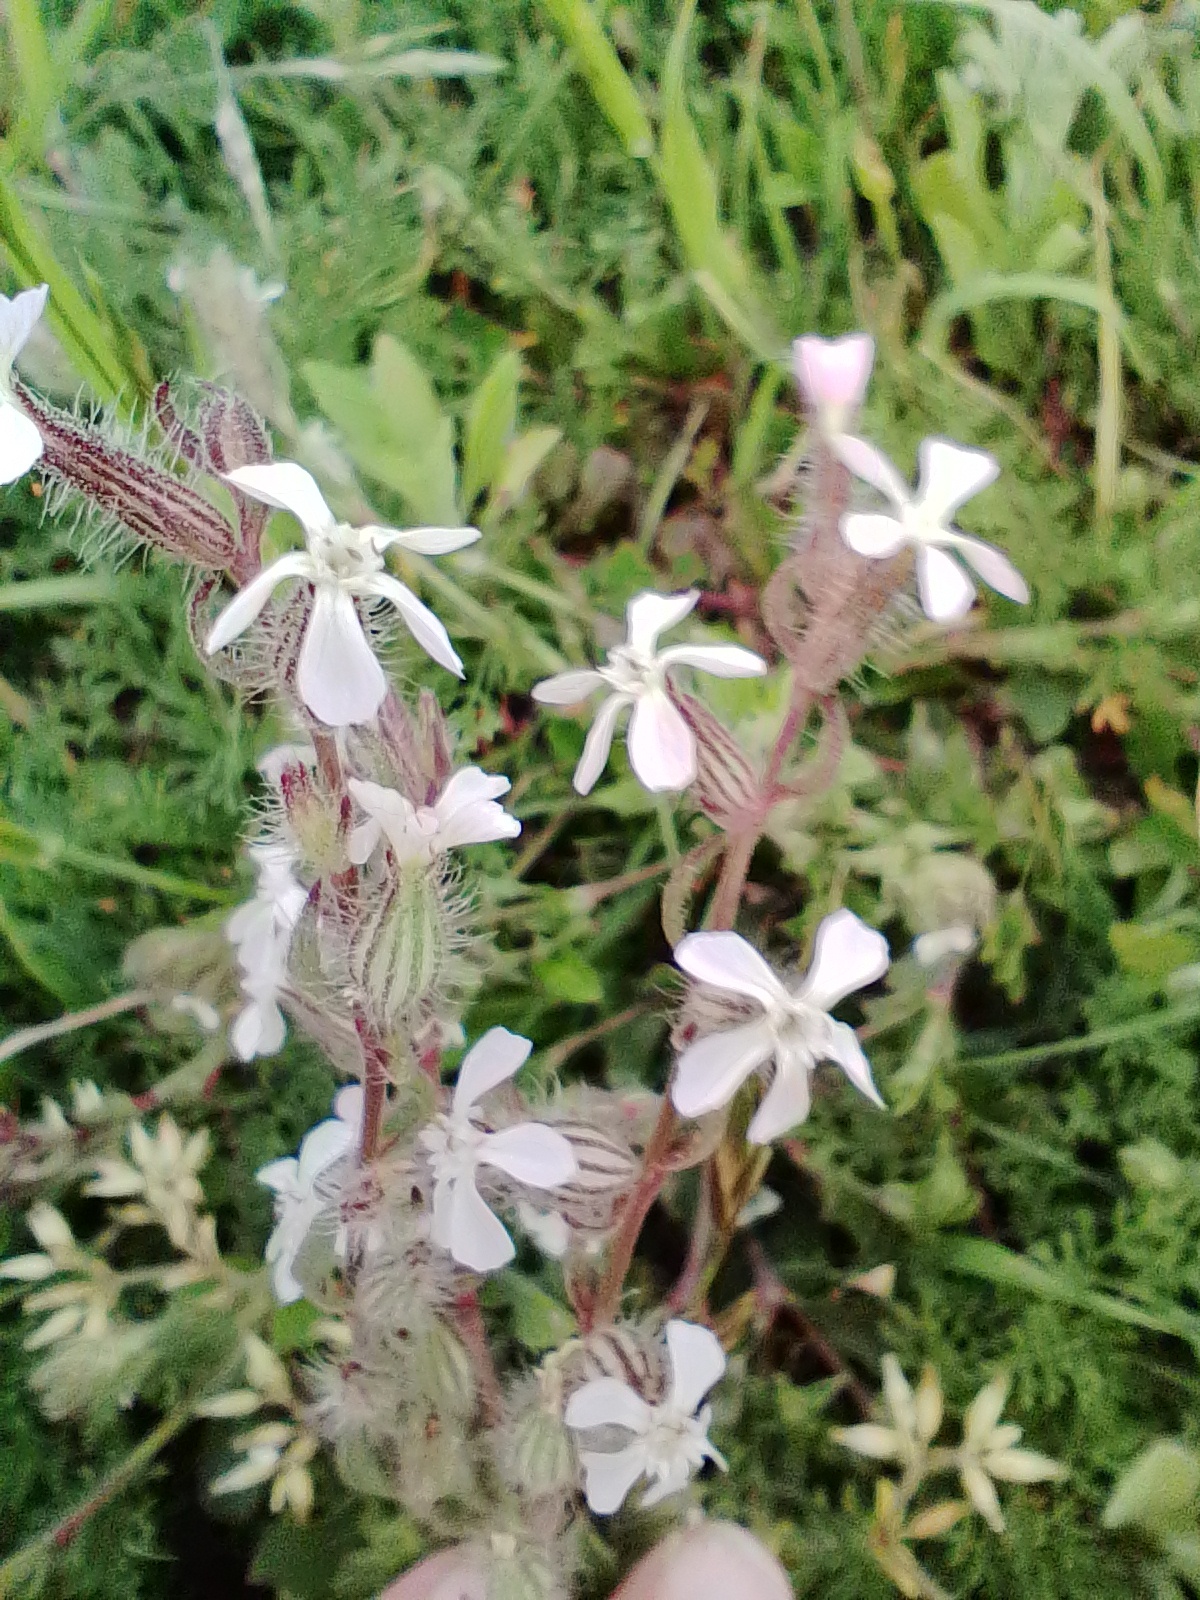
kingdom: Plantae
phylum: Tracheophyta
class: Magnoliopsida
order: Caryophyllales
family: Caryophyllaceae
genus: Silene
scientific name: Silene gallica
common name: Small-flowered catchfly
